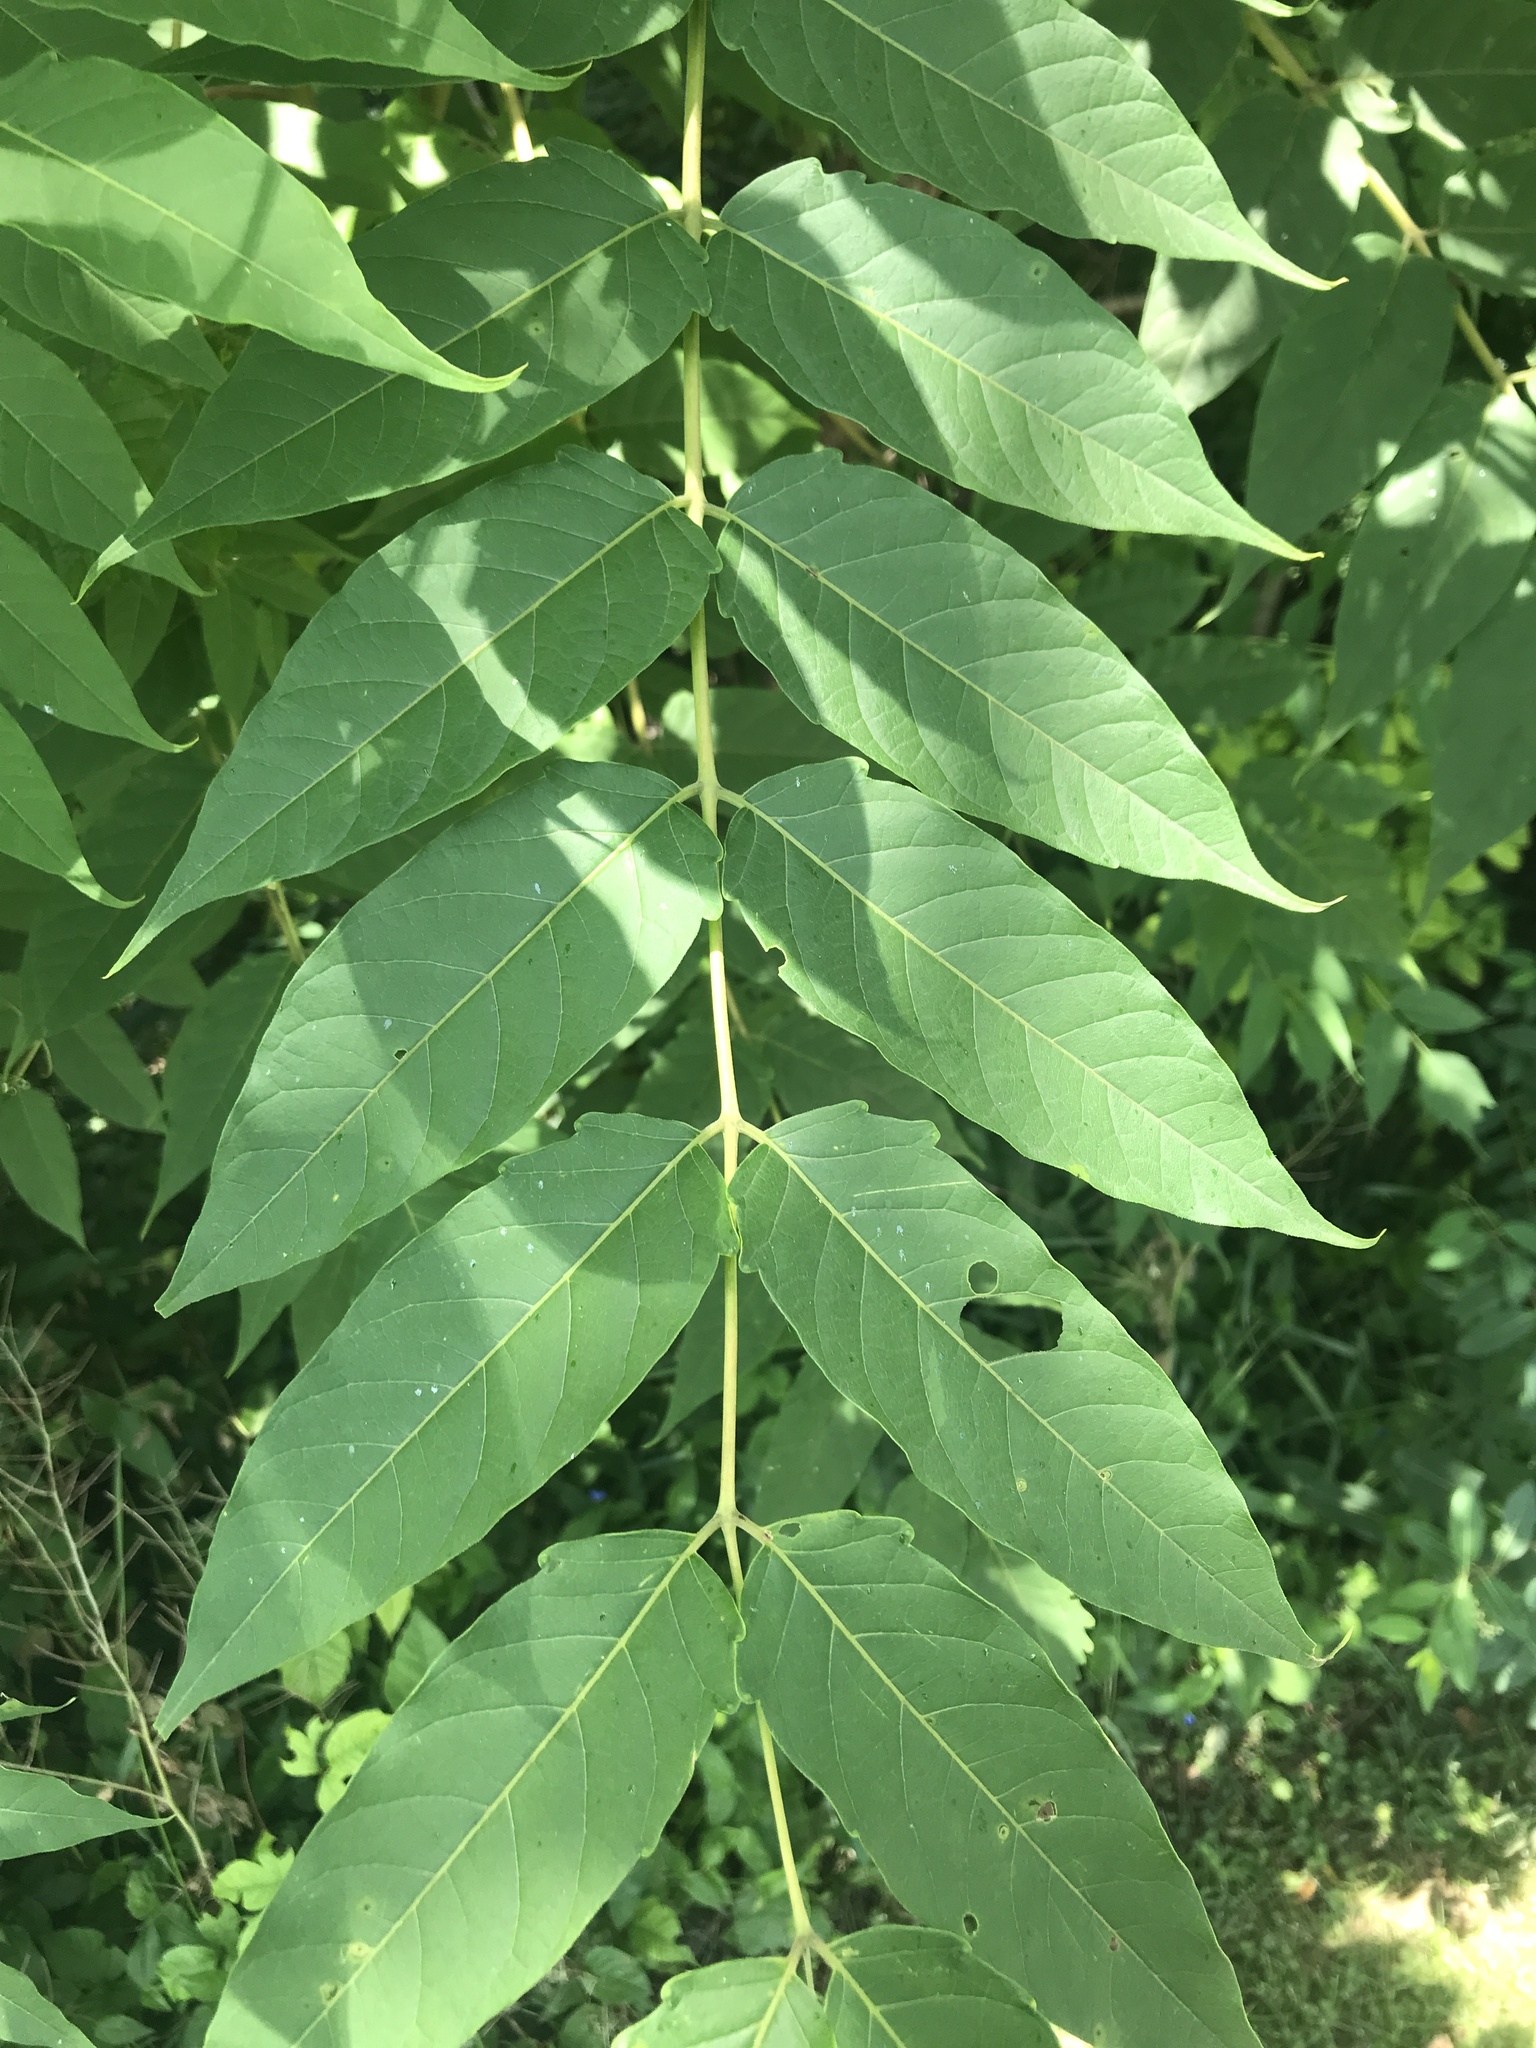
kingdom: Plantae
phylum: Tracheophyta
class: Magnoliopsida
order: Sapindales
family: Simaroubaceae
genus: Ailanthus
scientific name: Ailanthus altissima
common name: Tree-of-heaven
